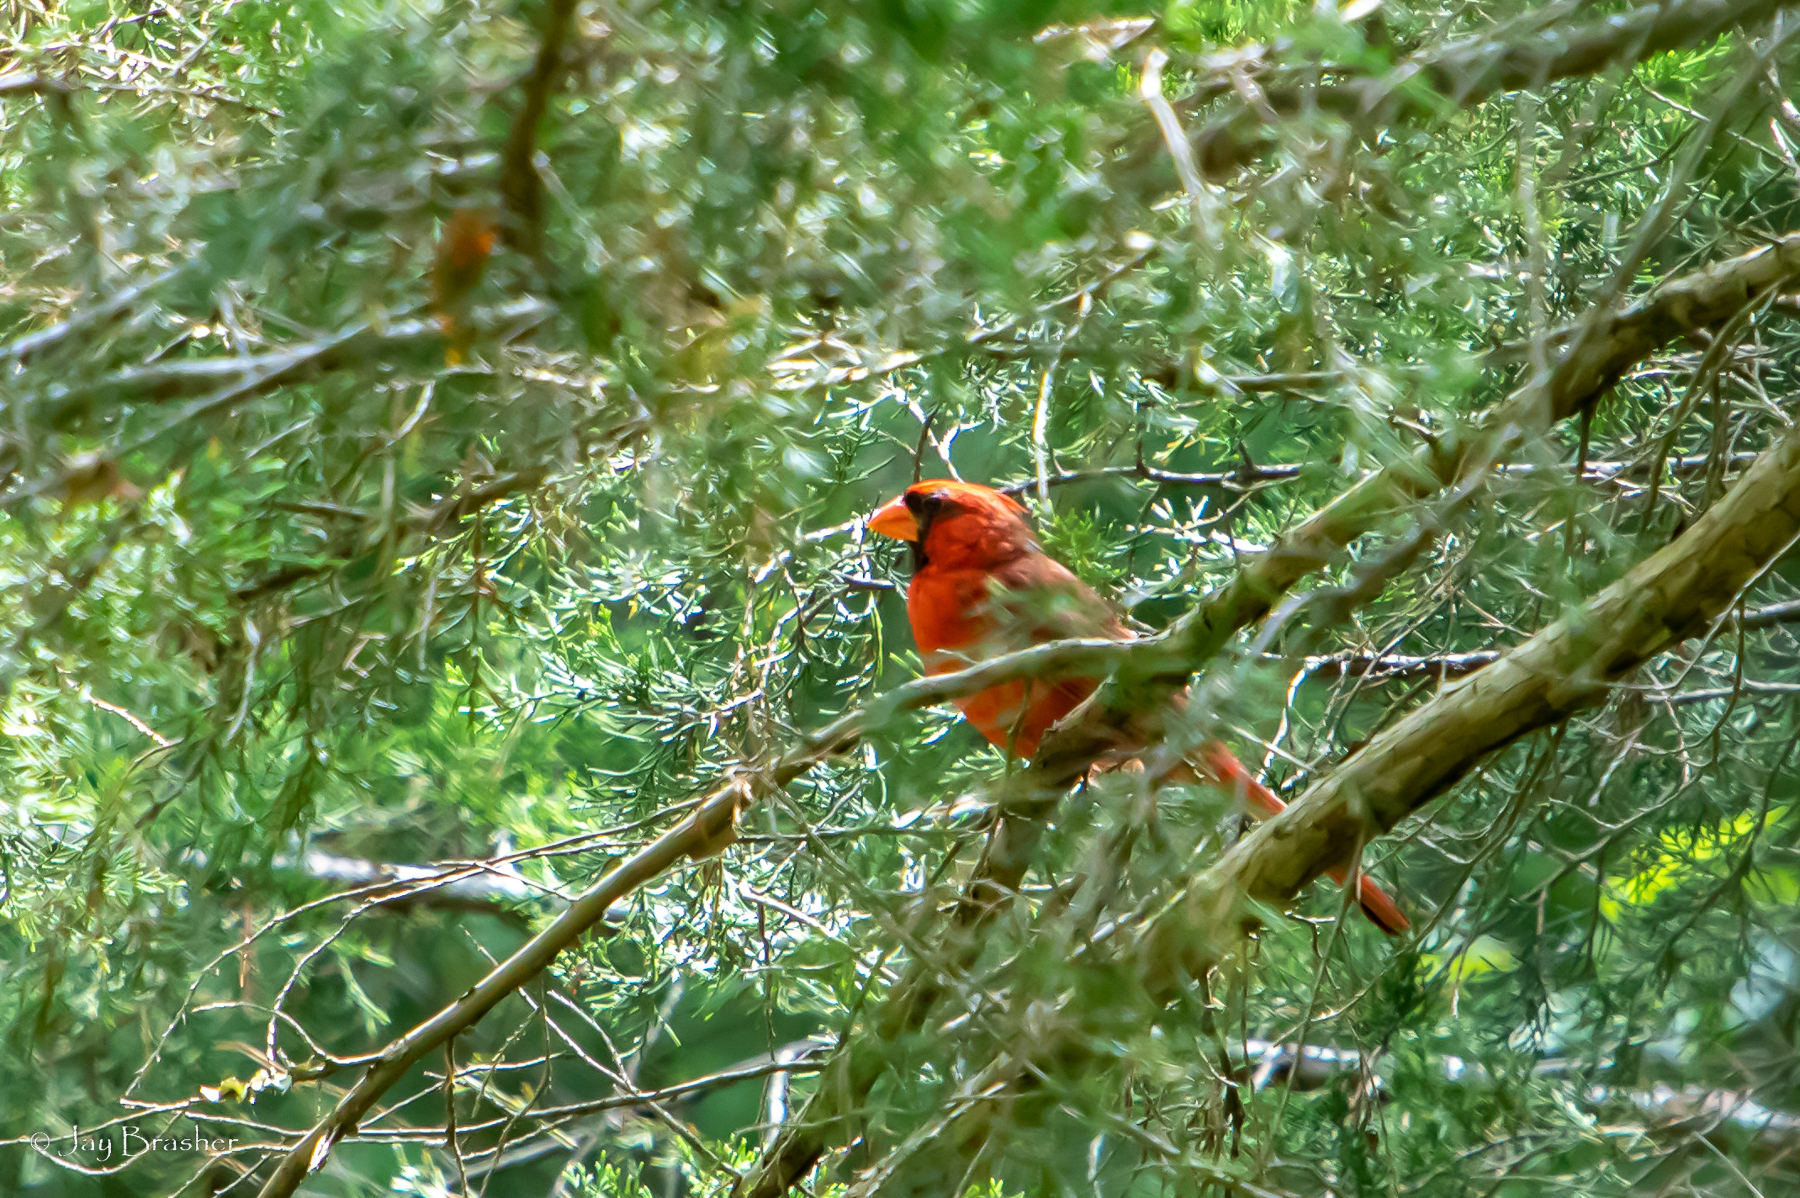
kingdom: Animalia
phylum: Chordata
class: Aves
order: Passeriformes
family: Cardinalidae
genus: Cardinalis
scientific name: Cardinalis cardinalis
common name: Northern cardinal
